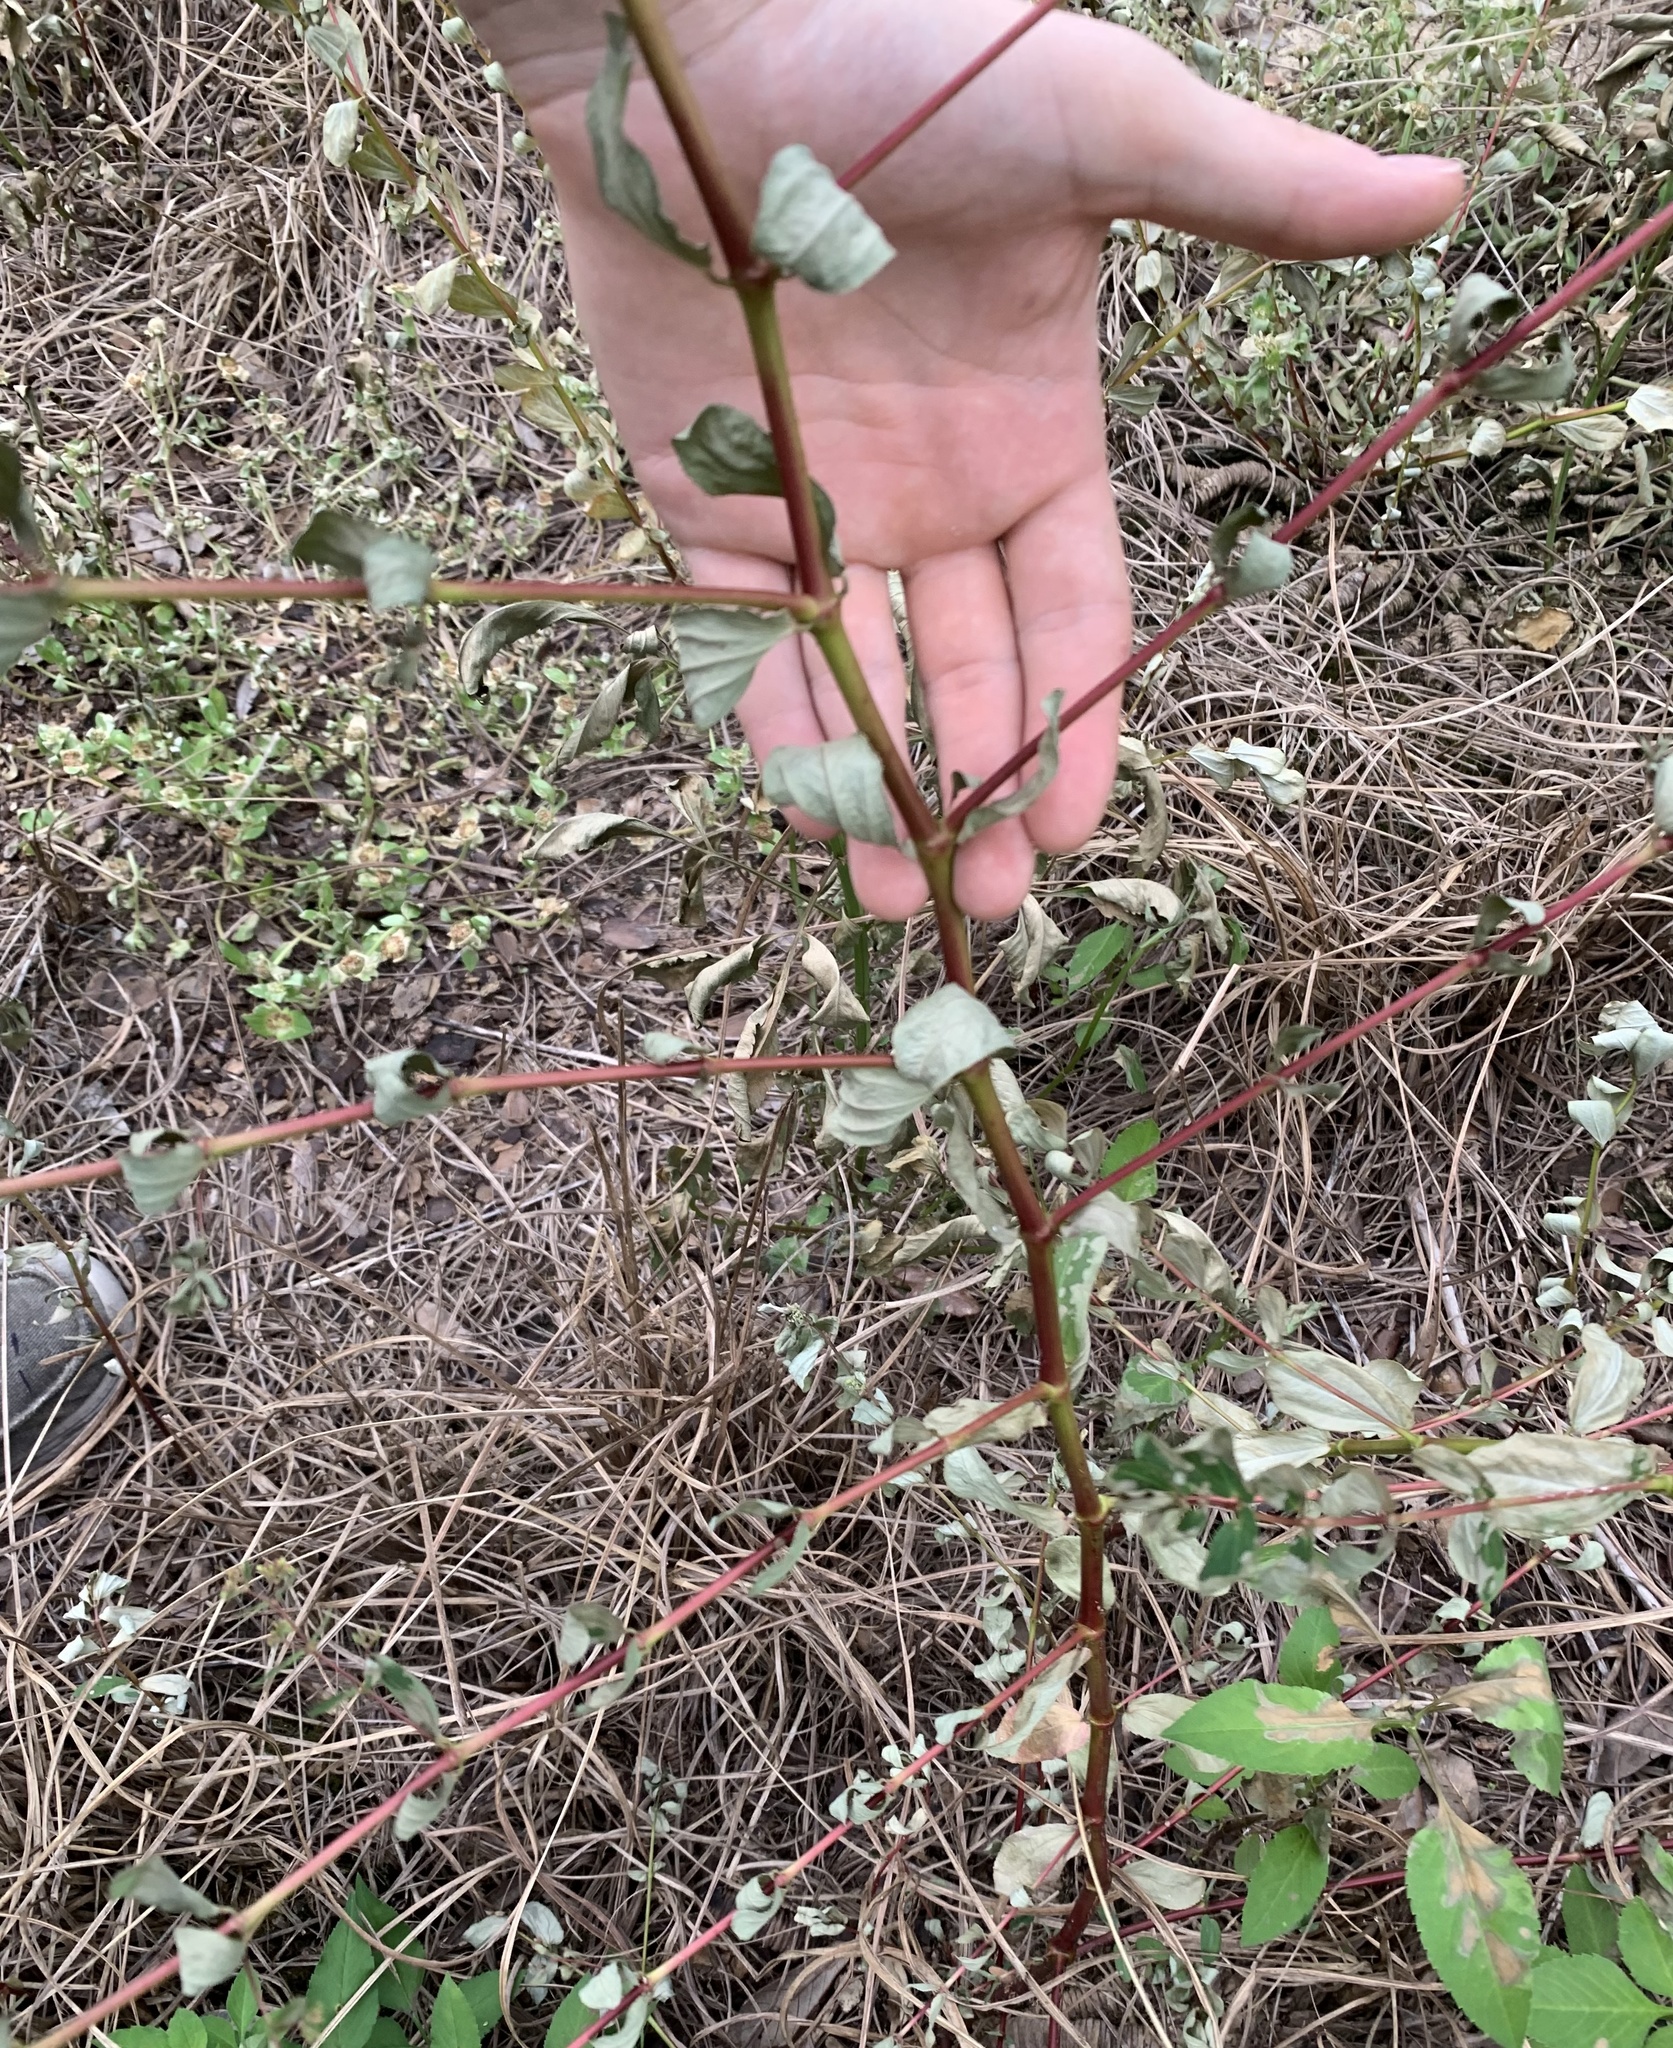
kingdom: Plantae
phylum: Tracheophyta
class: Magnoliopsida
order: Malpighiales
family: Euphorbiaceae
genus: Euphorbia
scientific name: Euphorbia hyssopifolia
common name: Hyssopleaf sandmat
